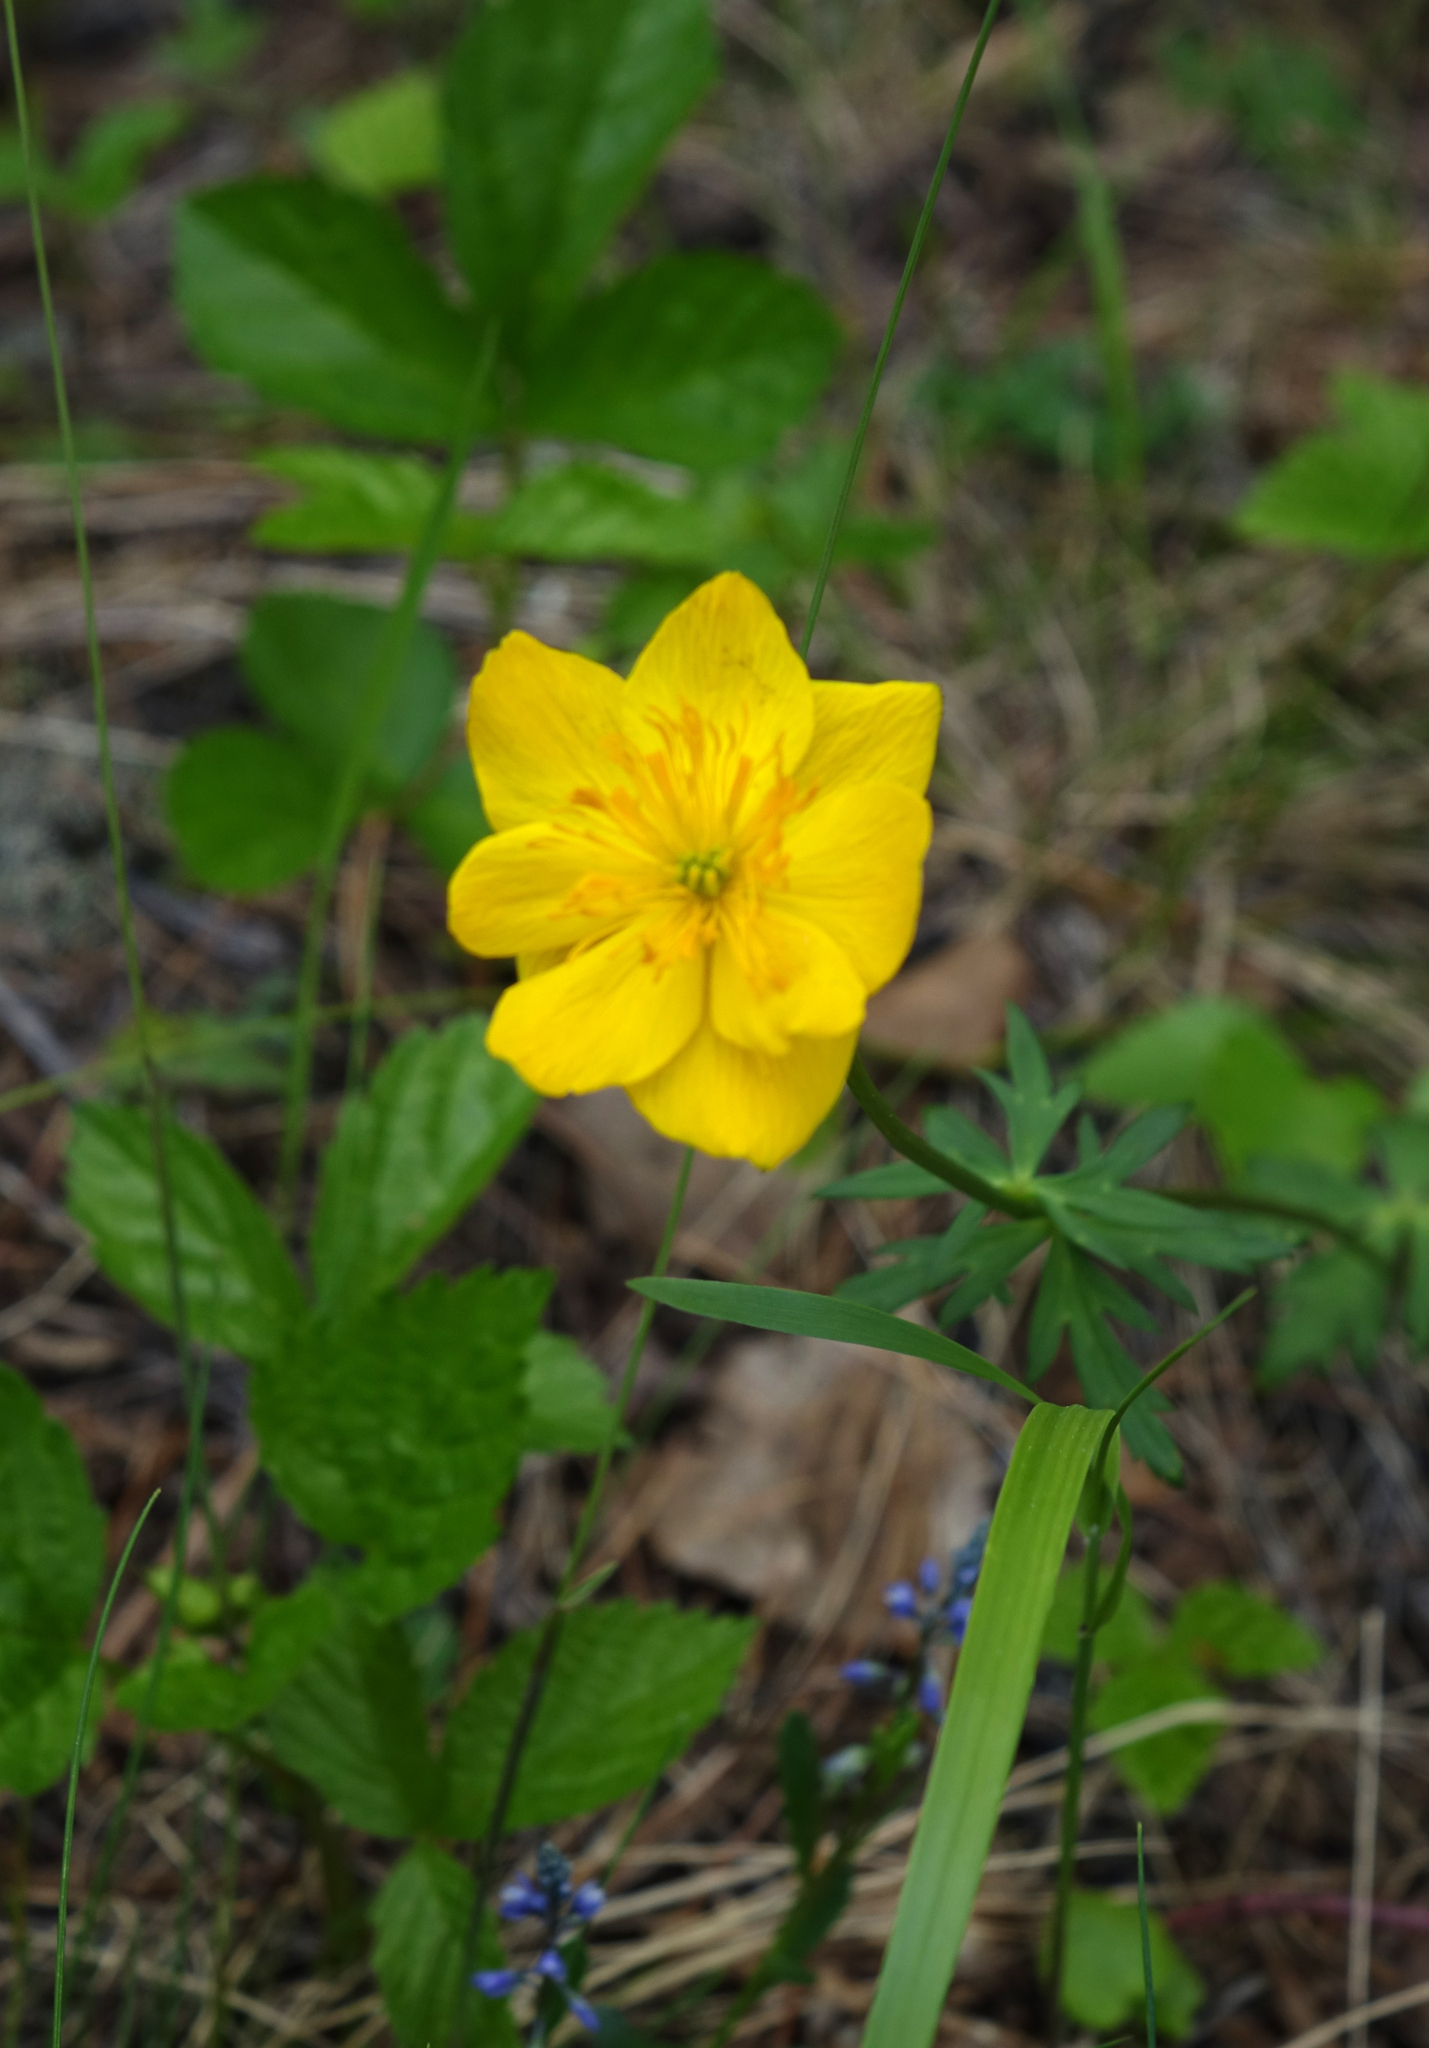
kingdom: Plantae
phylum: Tracheophyta
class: Magnoliopsida
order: Ranunculales
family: Ranunculaceae
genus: Trollius
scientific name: Trollius membranostylis
